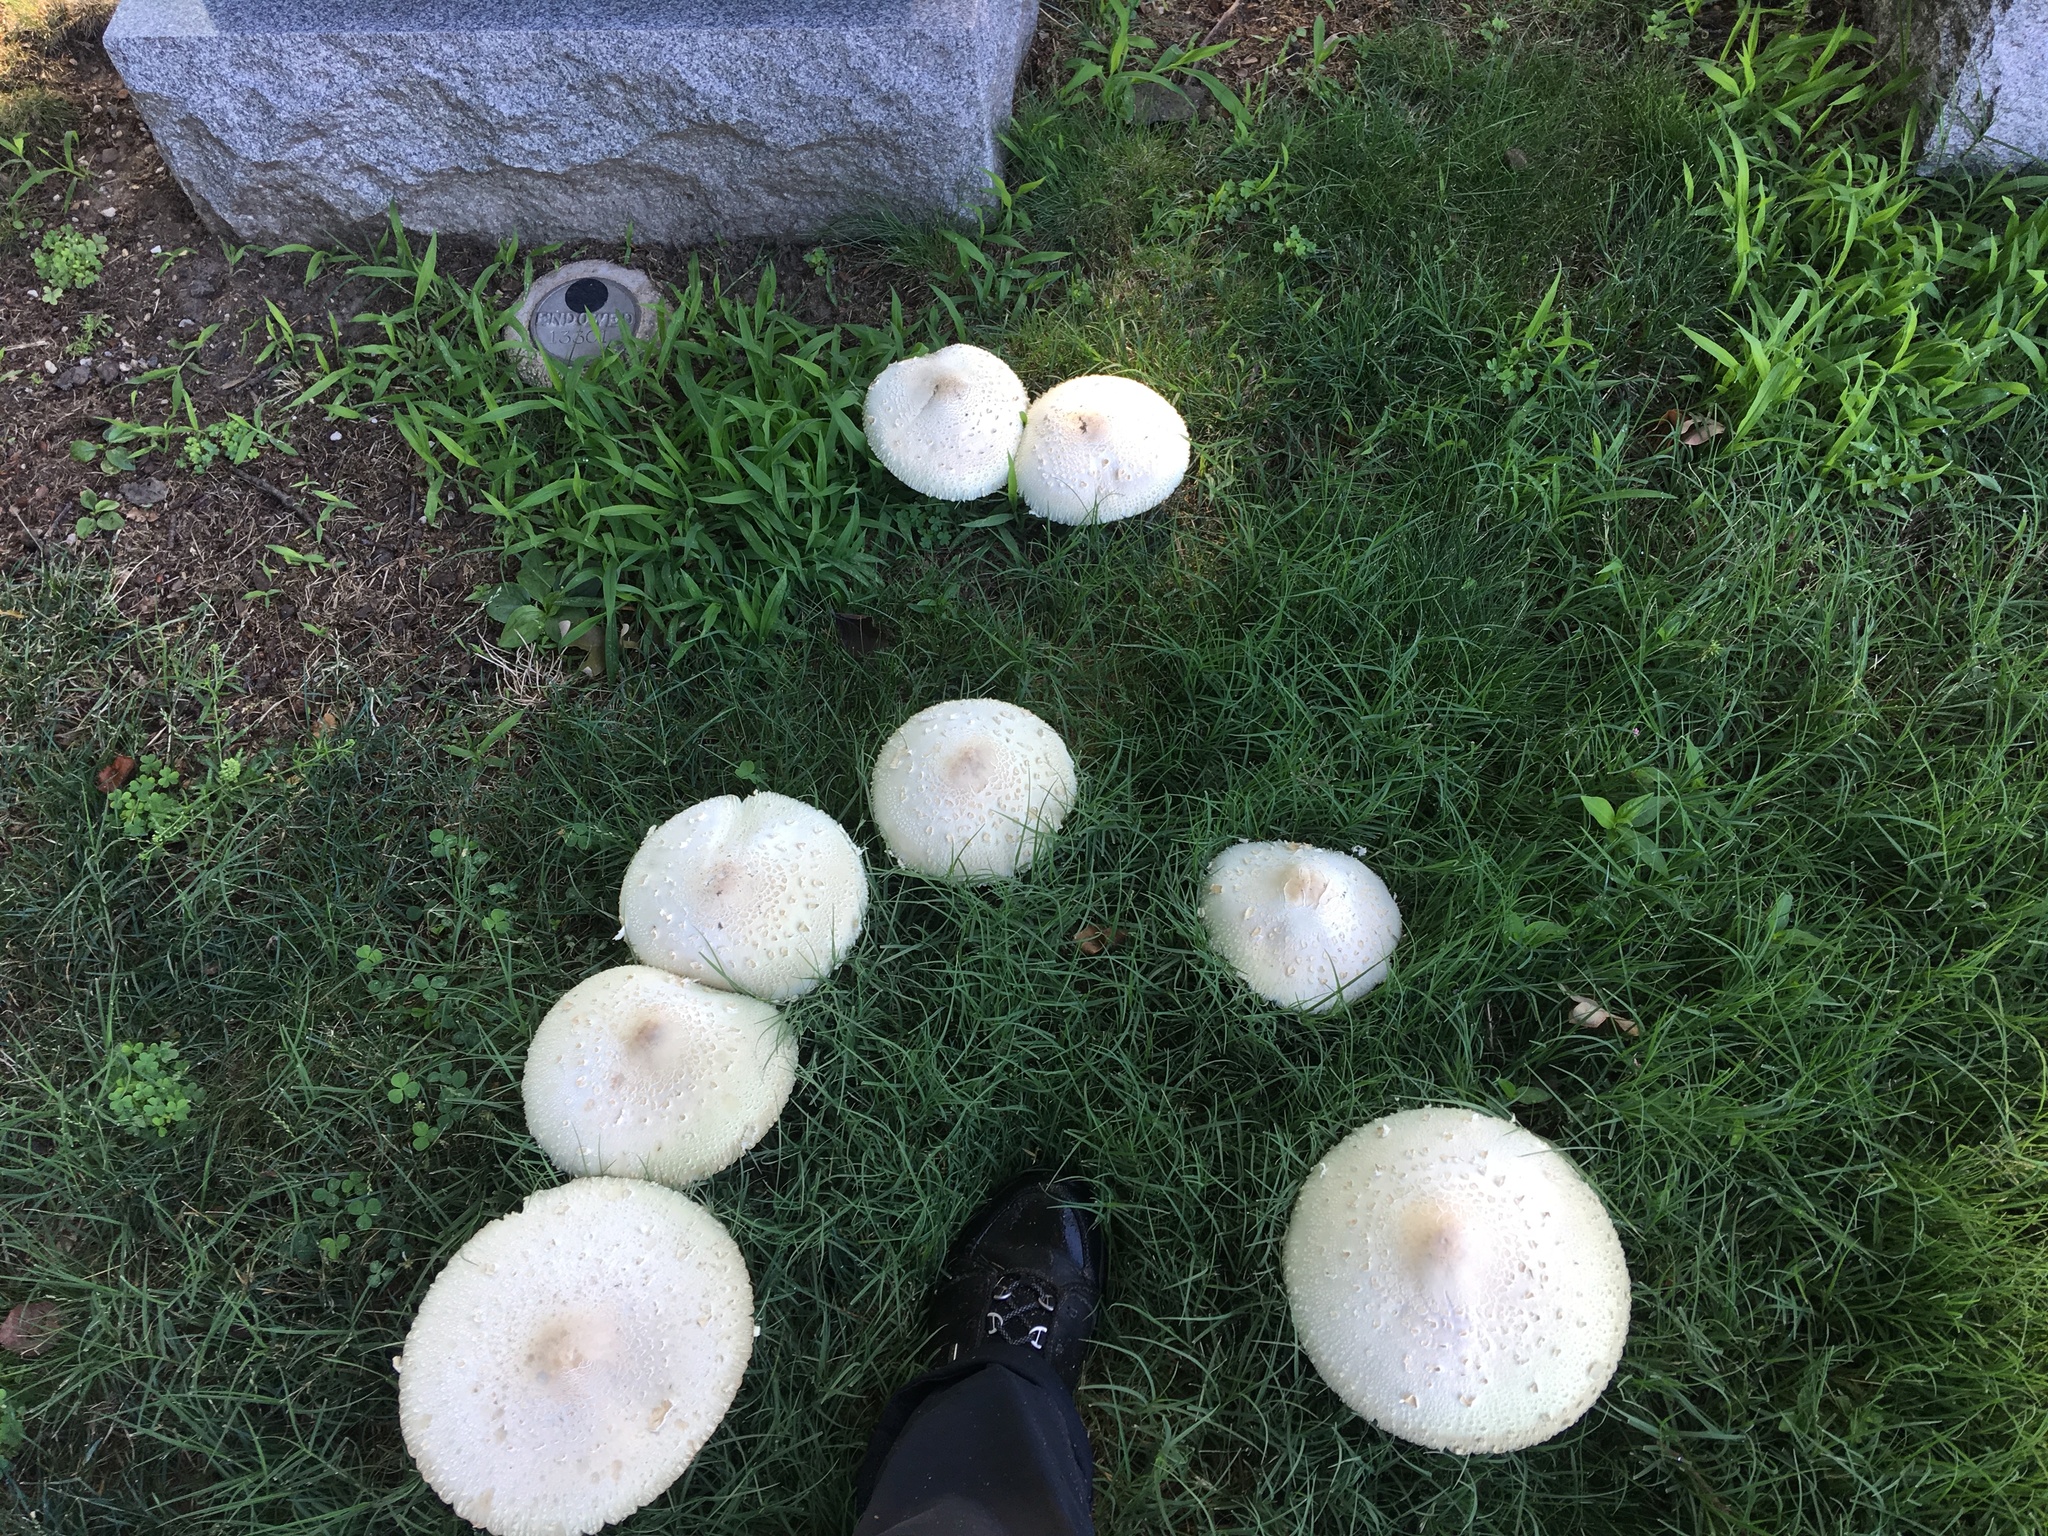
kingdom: Fungi
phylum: Basidiomycota
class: Agaricomycetes
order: Agaricales
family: Agaricaceae
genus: Chlorophyllum
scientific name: Chlorophyllum molybdites
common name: False parasol
